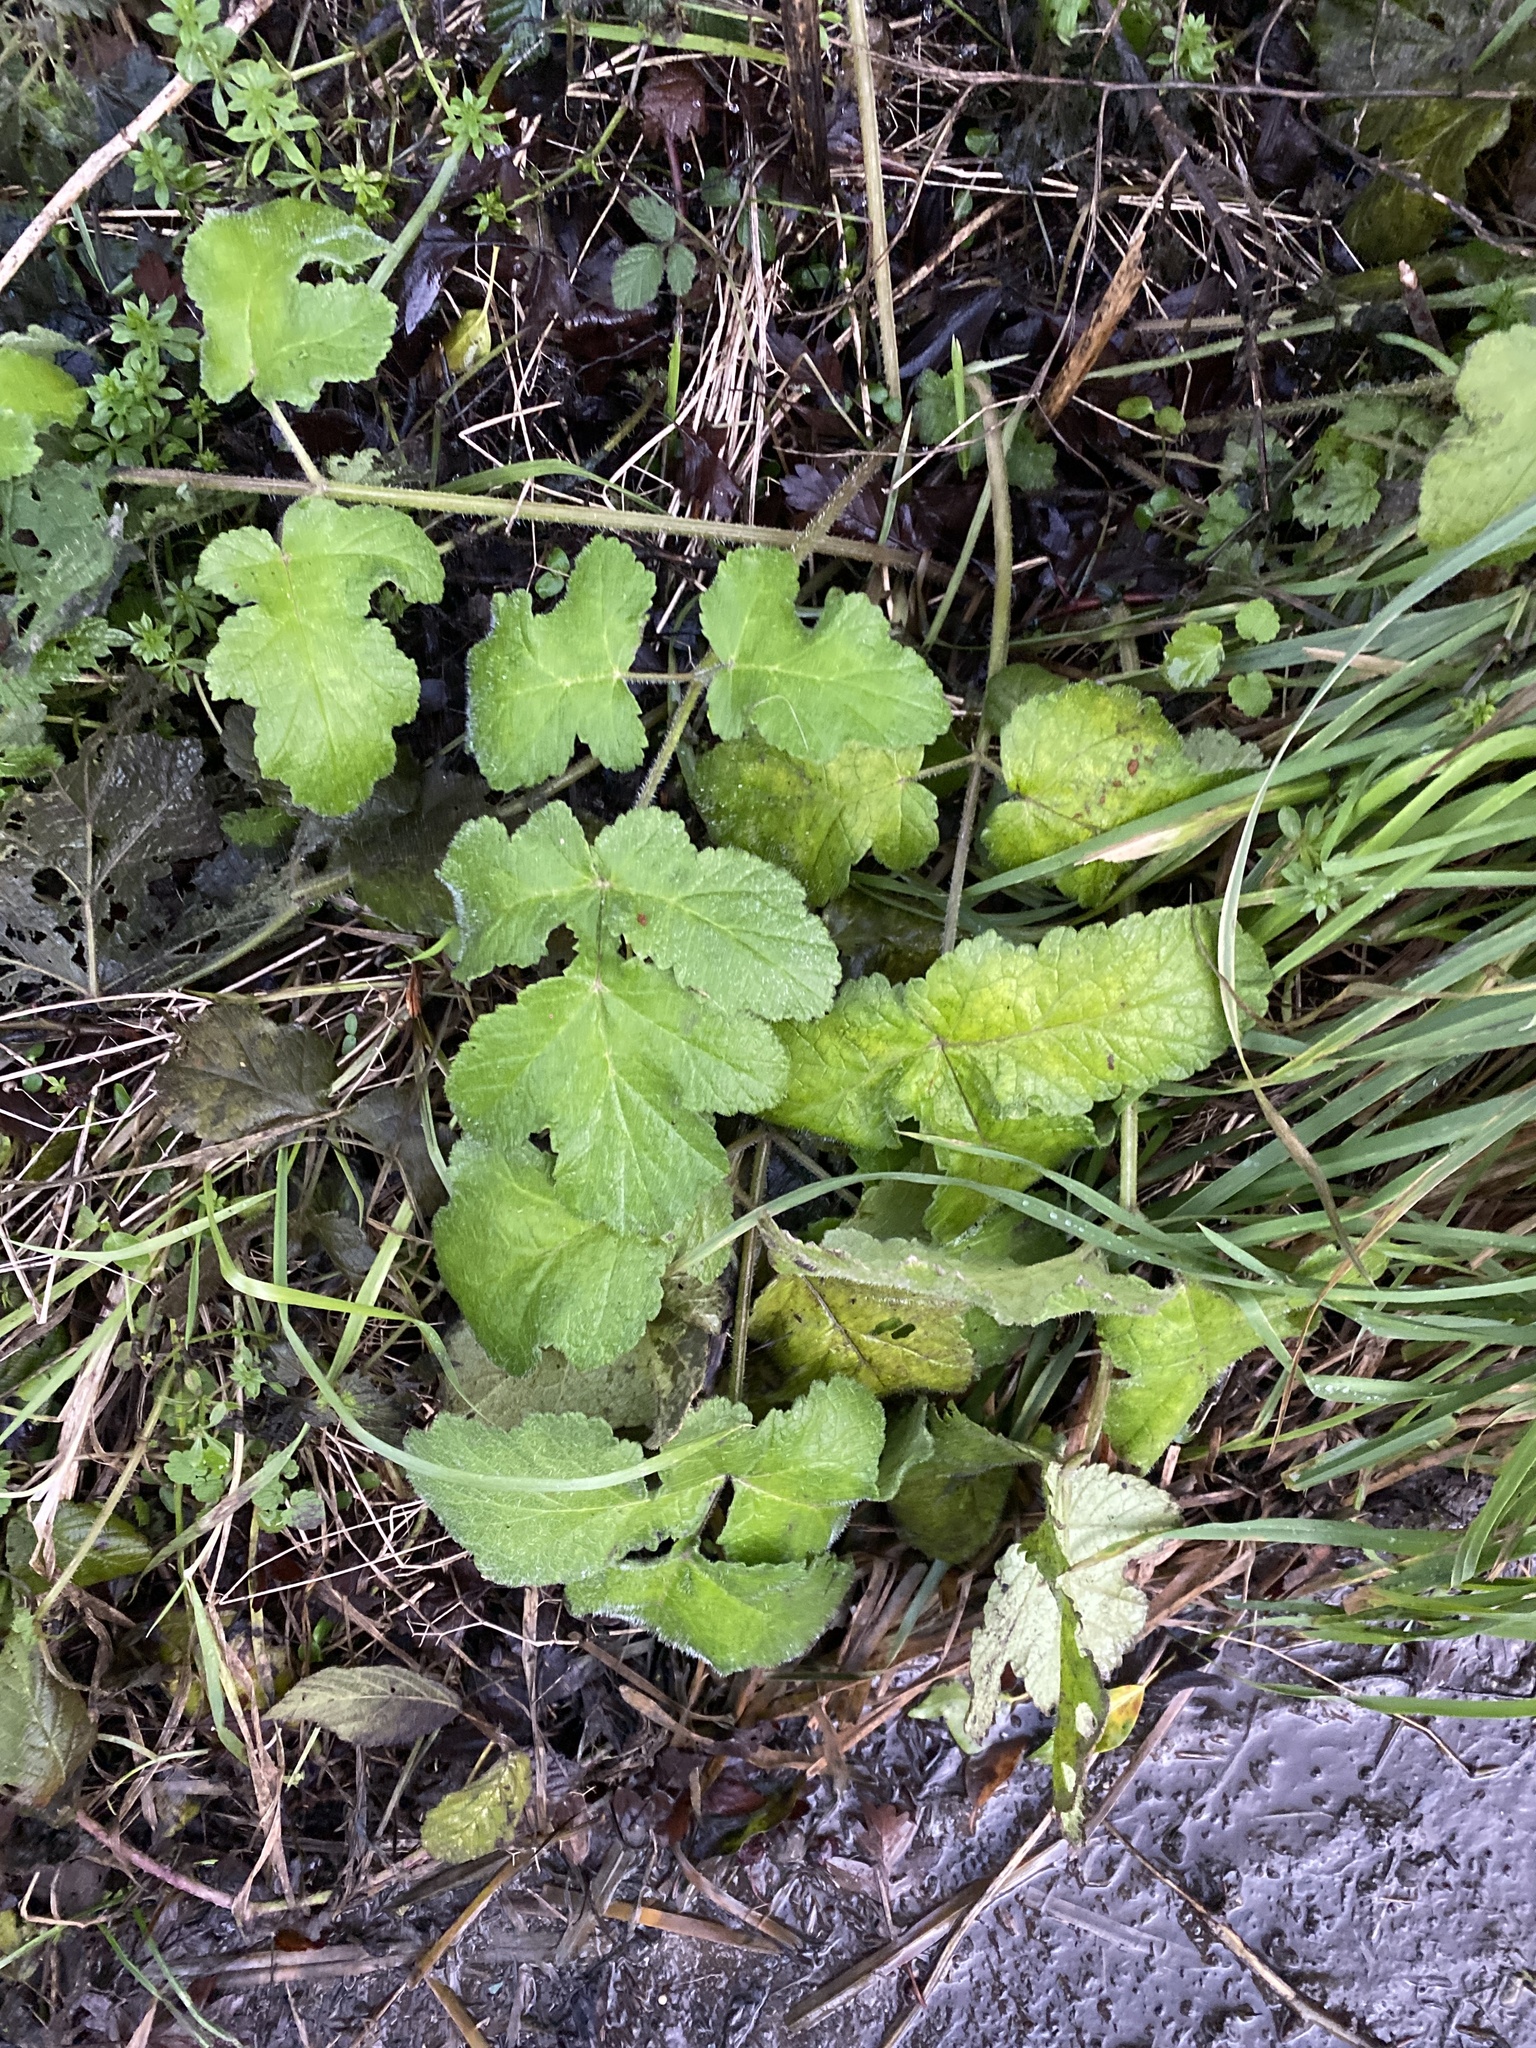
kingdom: Plantae
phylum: Tracheophyta
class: Magnoliopsida
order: Apiales
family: Apiaceae
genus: Heracleum
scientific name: Heracleum sphondylium
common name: Hogweed
